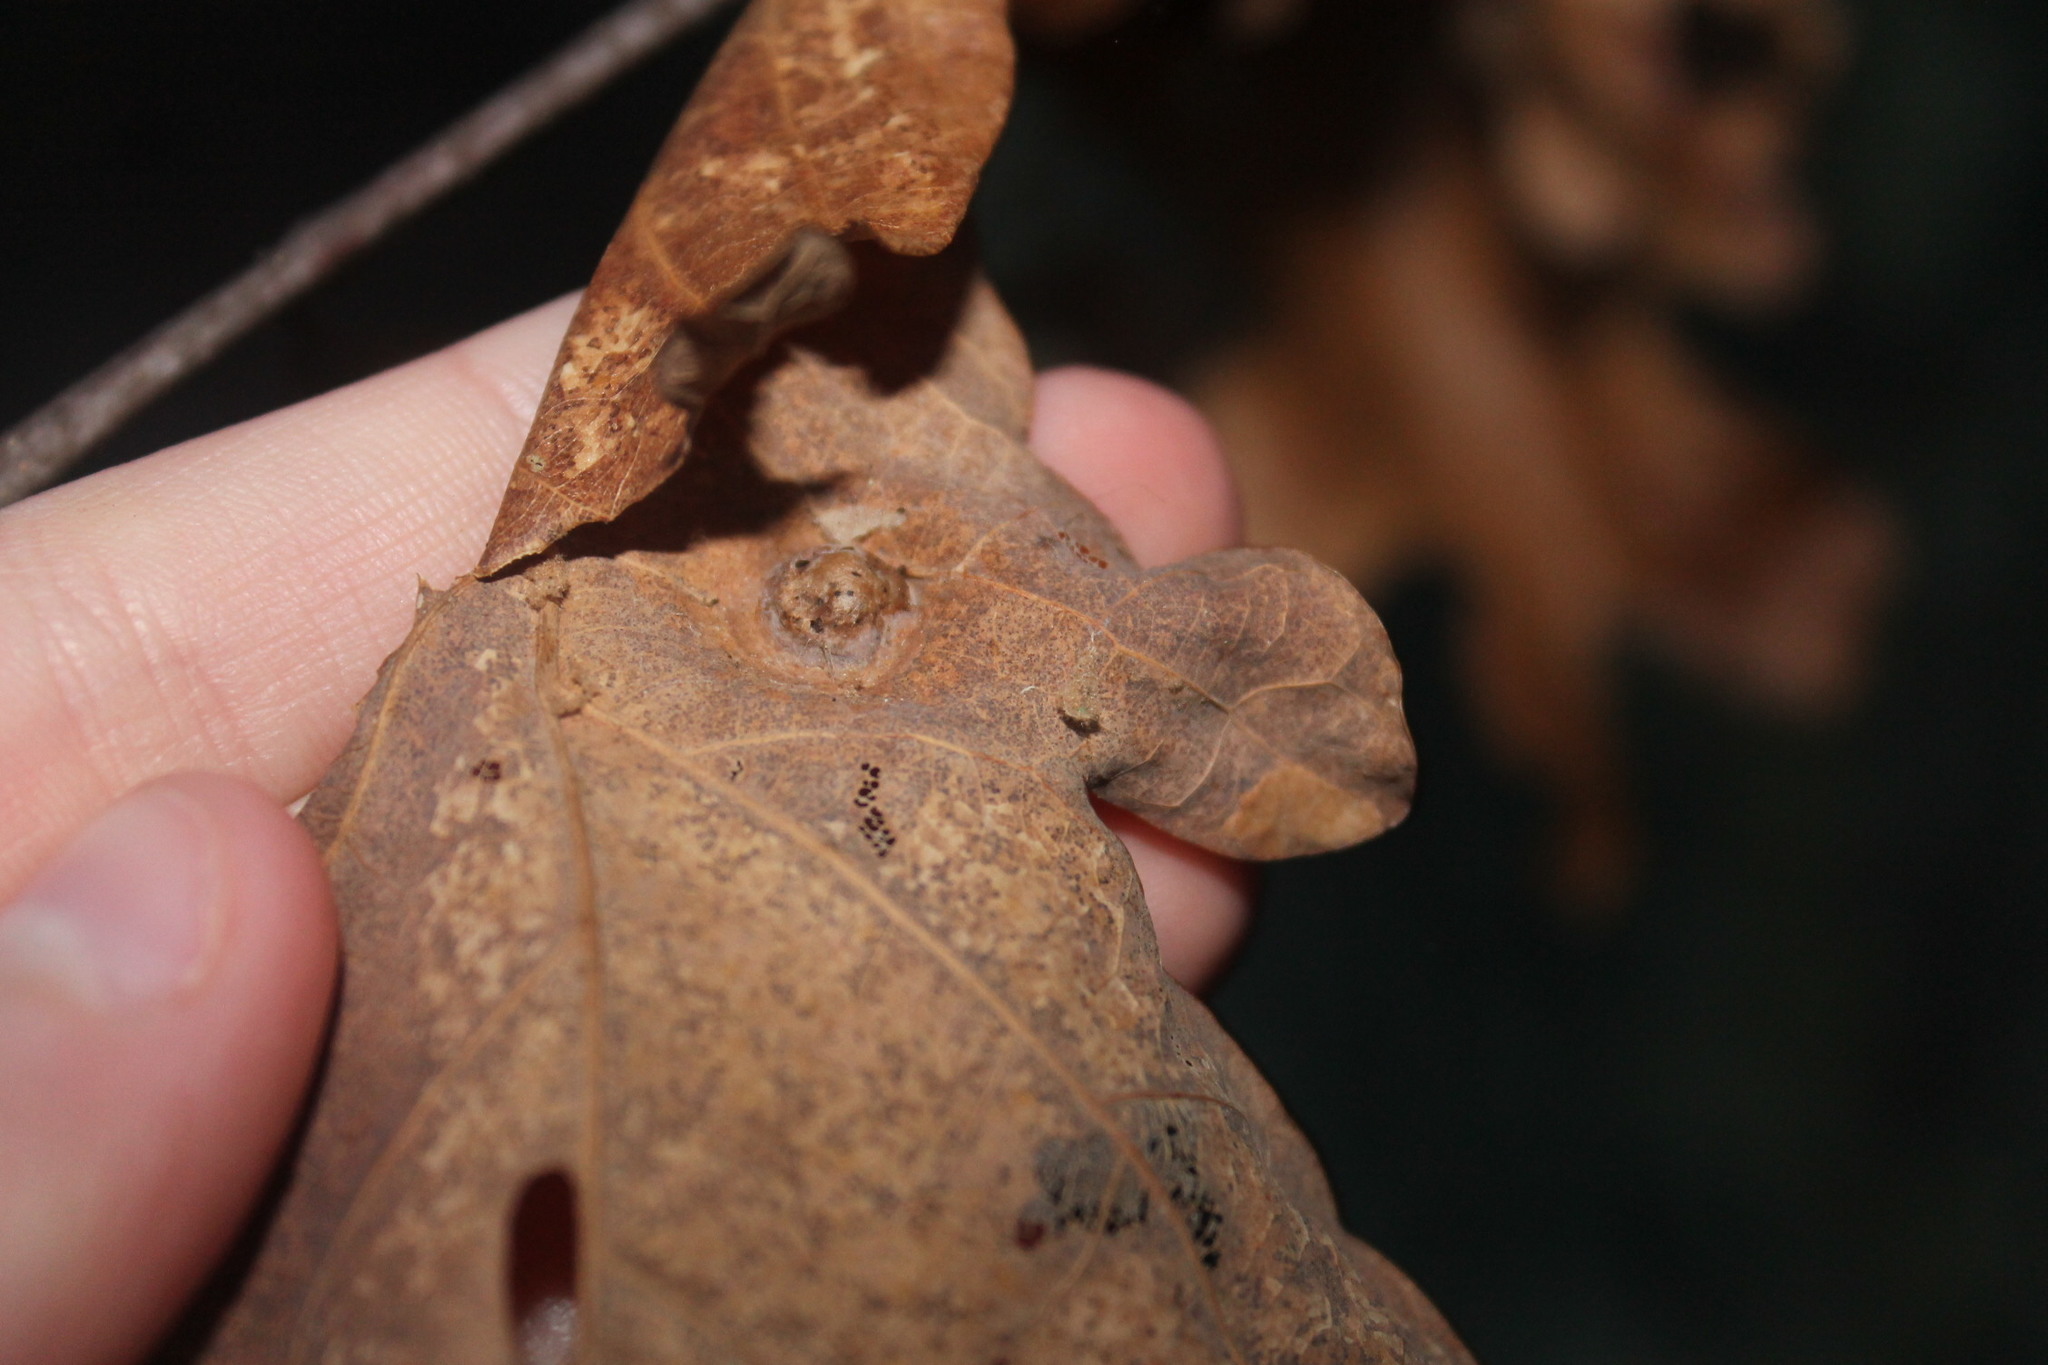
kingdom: Animalia
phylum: Arthropoda
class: Insecta
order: Hymenoptera
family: Cynipidae
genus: Callirhytis
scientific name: Callirhytis
